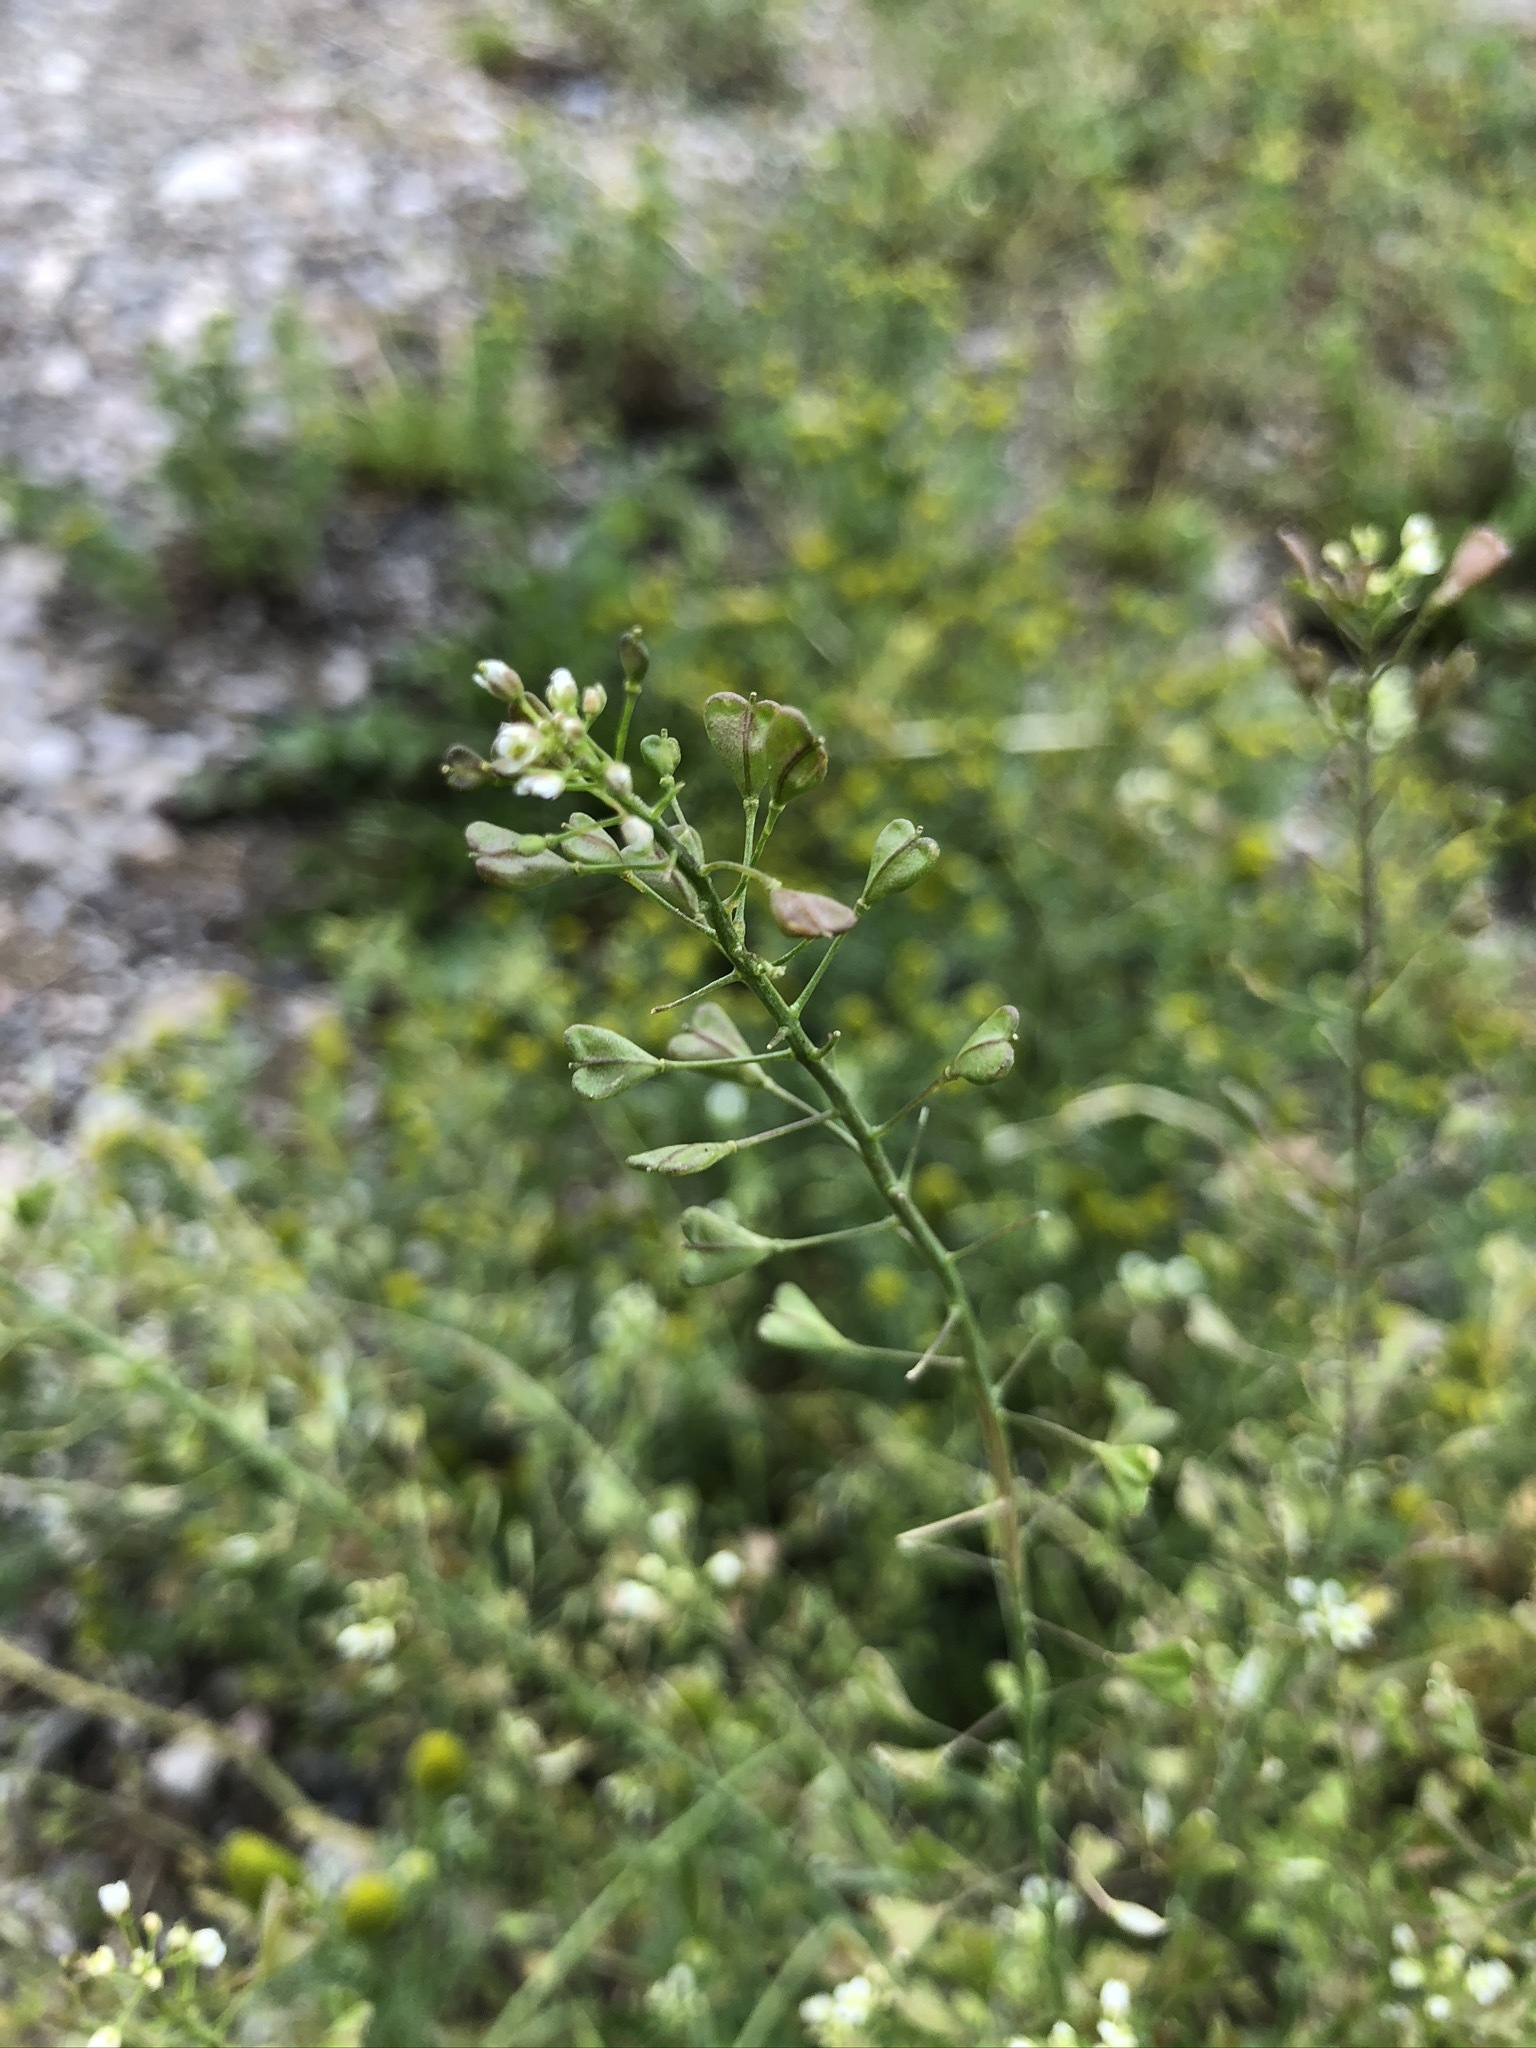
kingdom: Plantae
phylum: Tracheophyta
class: Magnoliopsida
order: Brassicales
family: Brassicaceae
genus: Capsella
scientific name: Capsella bursa-pastoris
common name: Shepherd's purse
